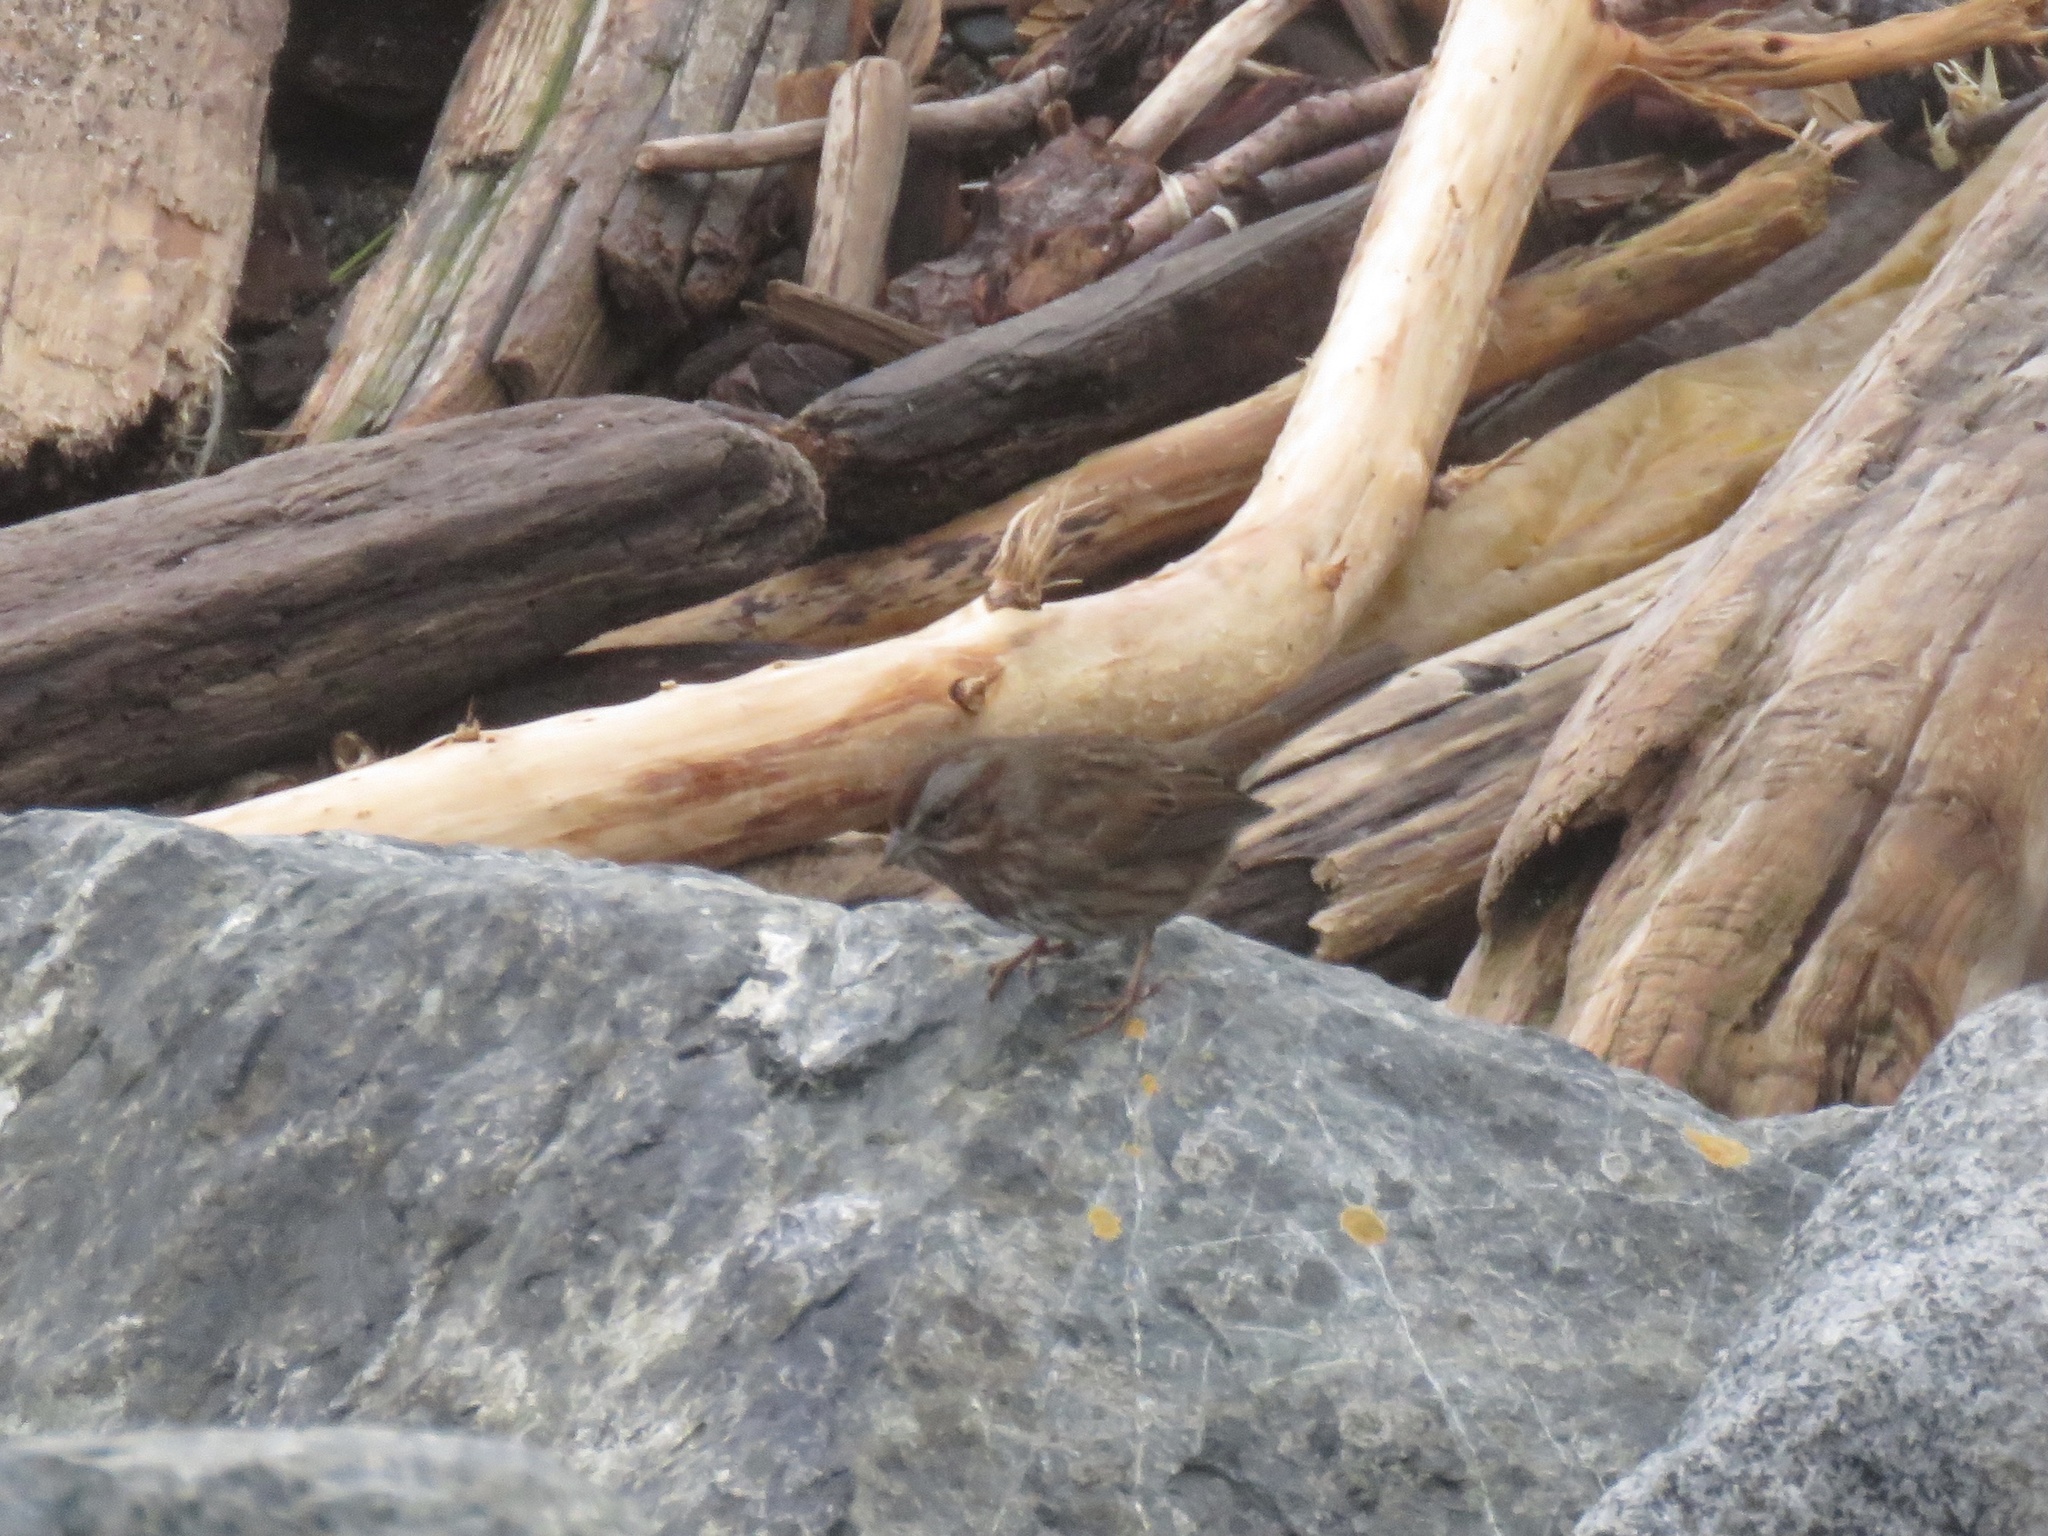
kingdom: Animalia
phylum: Chordata
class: Aves
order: Passeriformes
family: Passerellidae
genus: Melospiza
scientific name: Melospiza melodia
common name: Song sparrow
